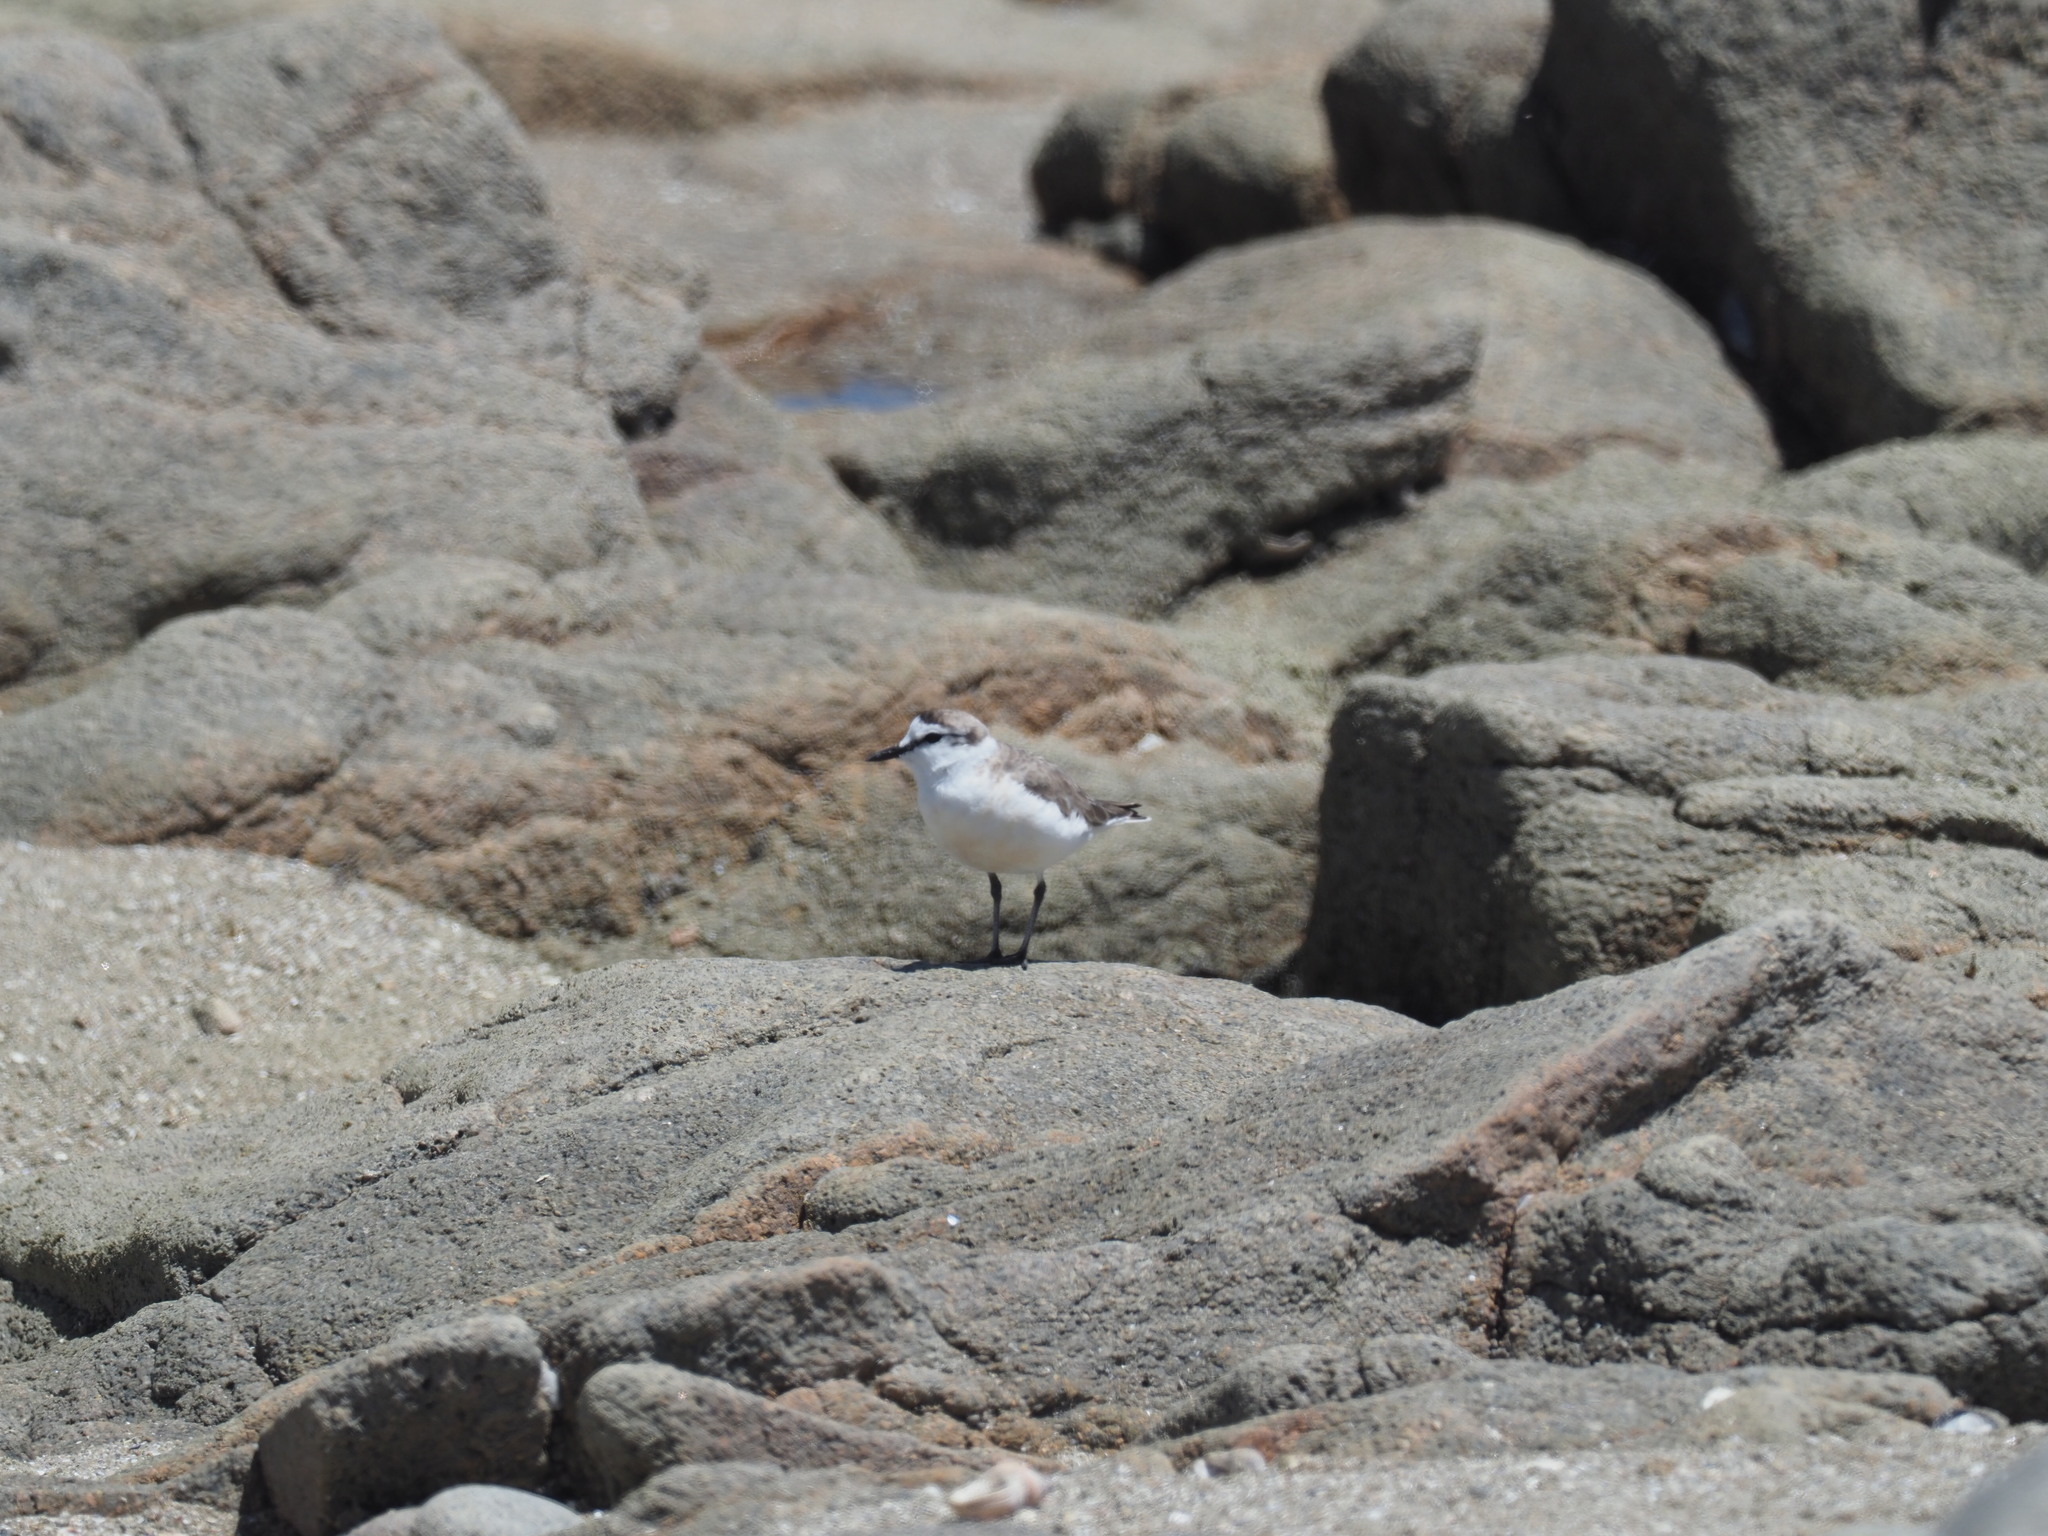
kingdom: Animalia
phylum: Chordata
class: Aves
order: Charadriiformes
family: Charadriidae
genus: Anarhynchus
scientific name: Anarhynchus
